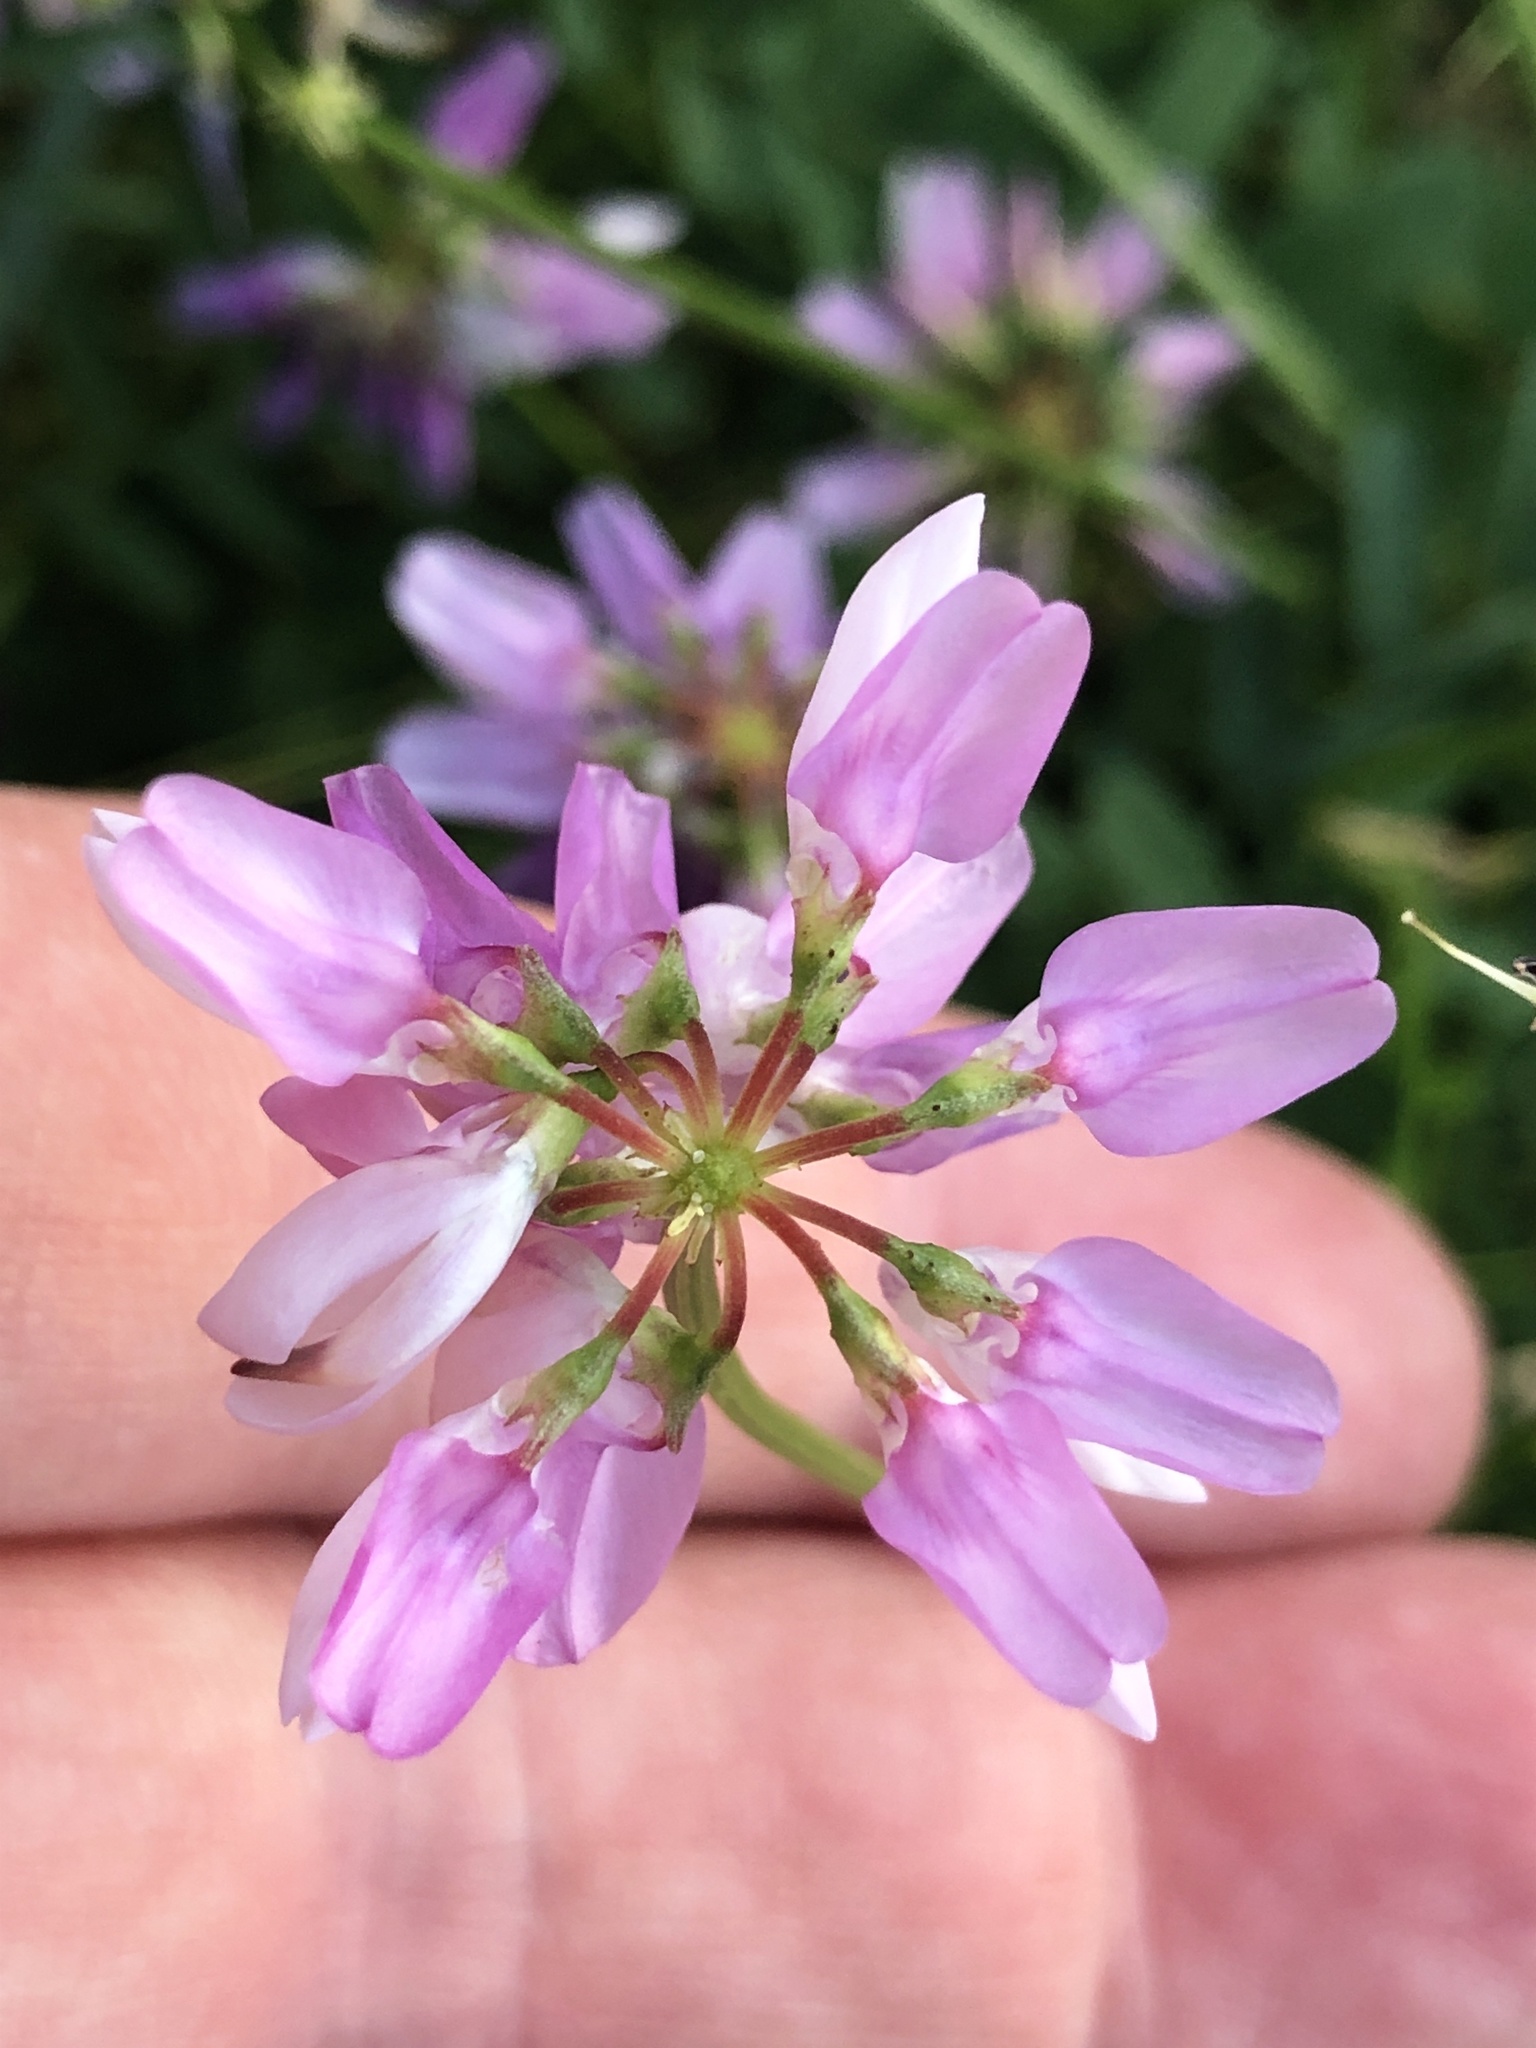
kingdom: Plantae
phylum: Tracheophyta
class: Magnoliopsida
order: Fabales
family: Fabaceae
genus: Coronilla
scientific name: Coronilla varia
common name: Crownvetch
